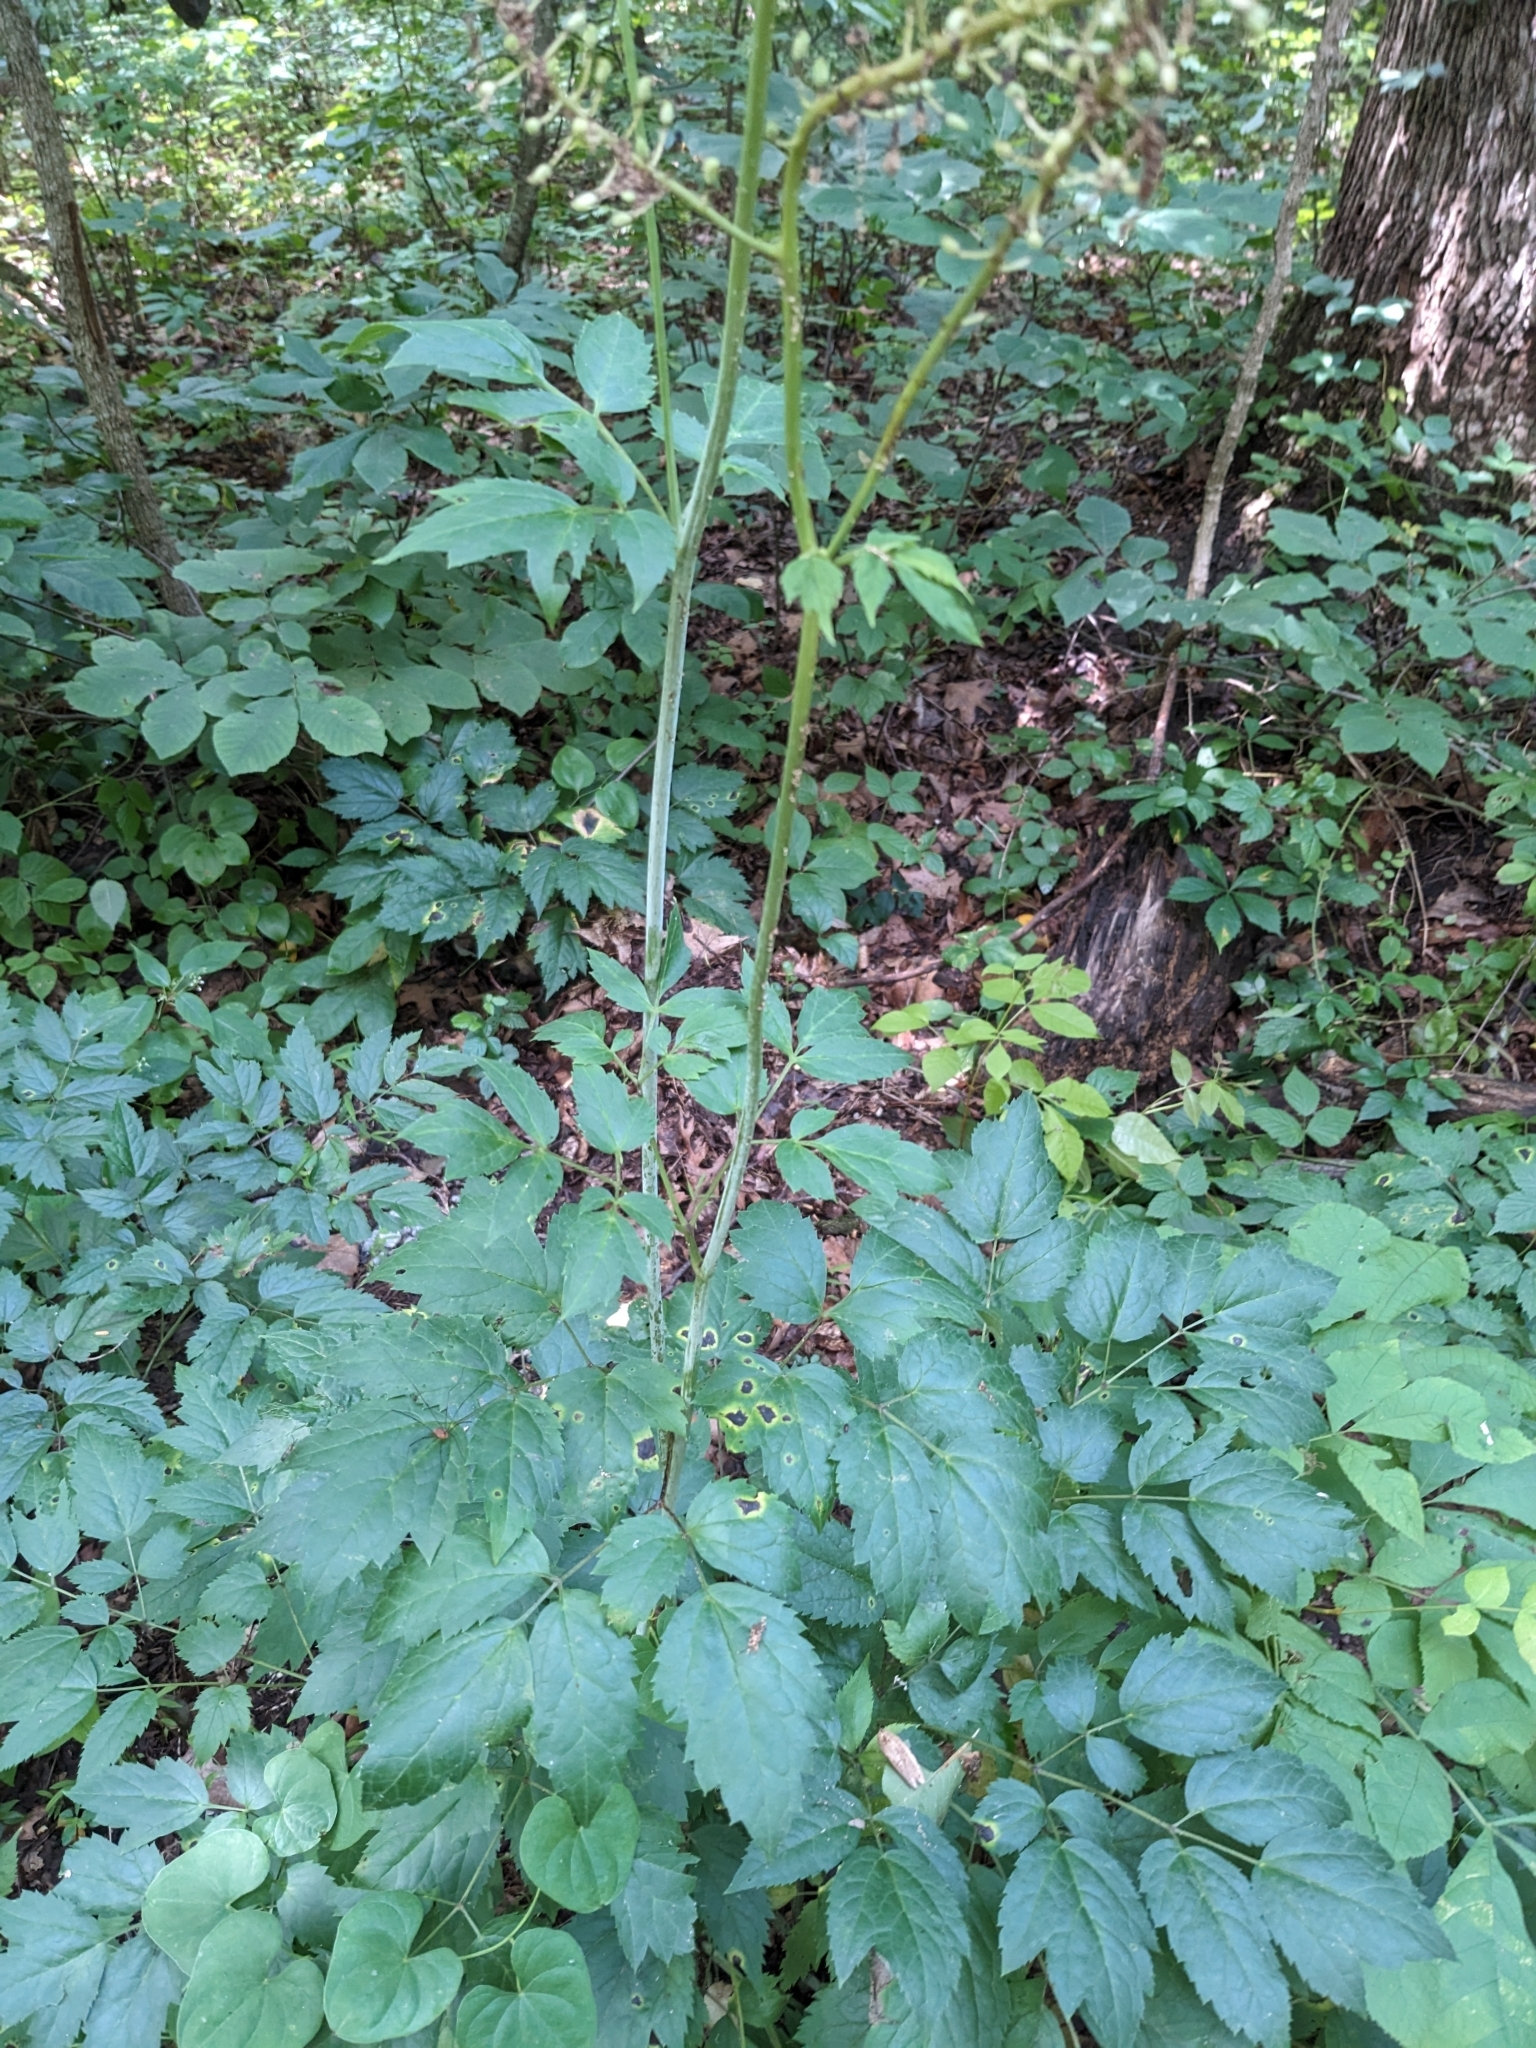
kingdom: Plantae
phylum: Tracheophyta
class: Magnoliopsida
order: Ranunculales
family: Ranunculaceae
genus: Actaea
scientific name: Actaea racemosa
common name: Black cohosh
